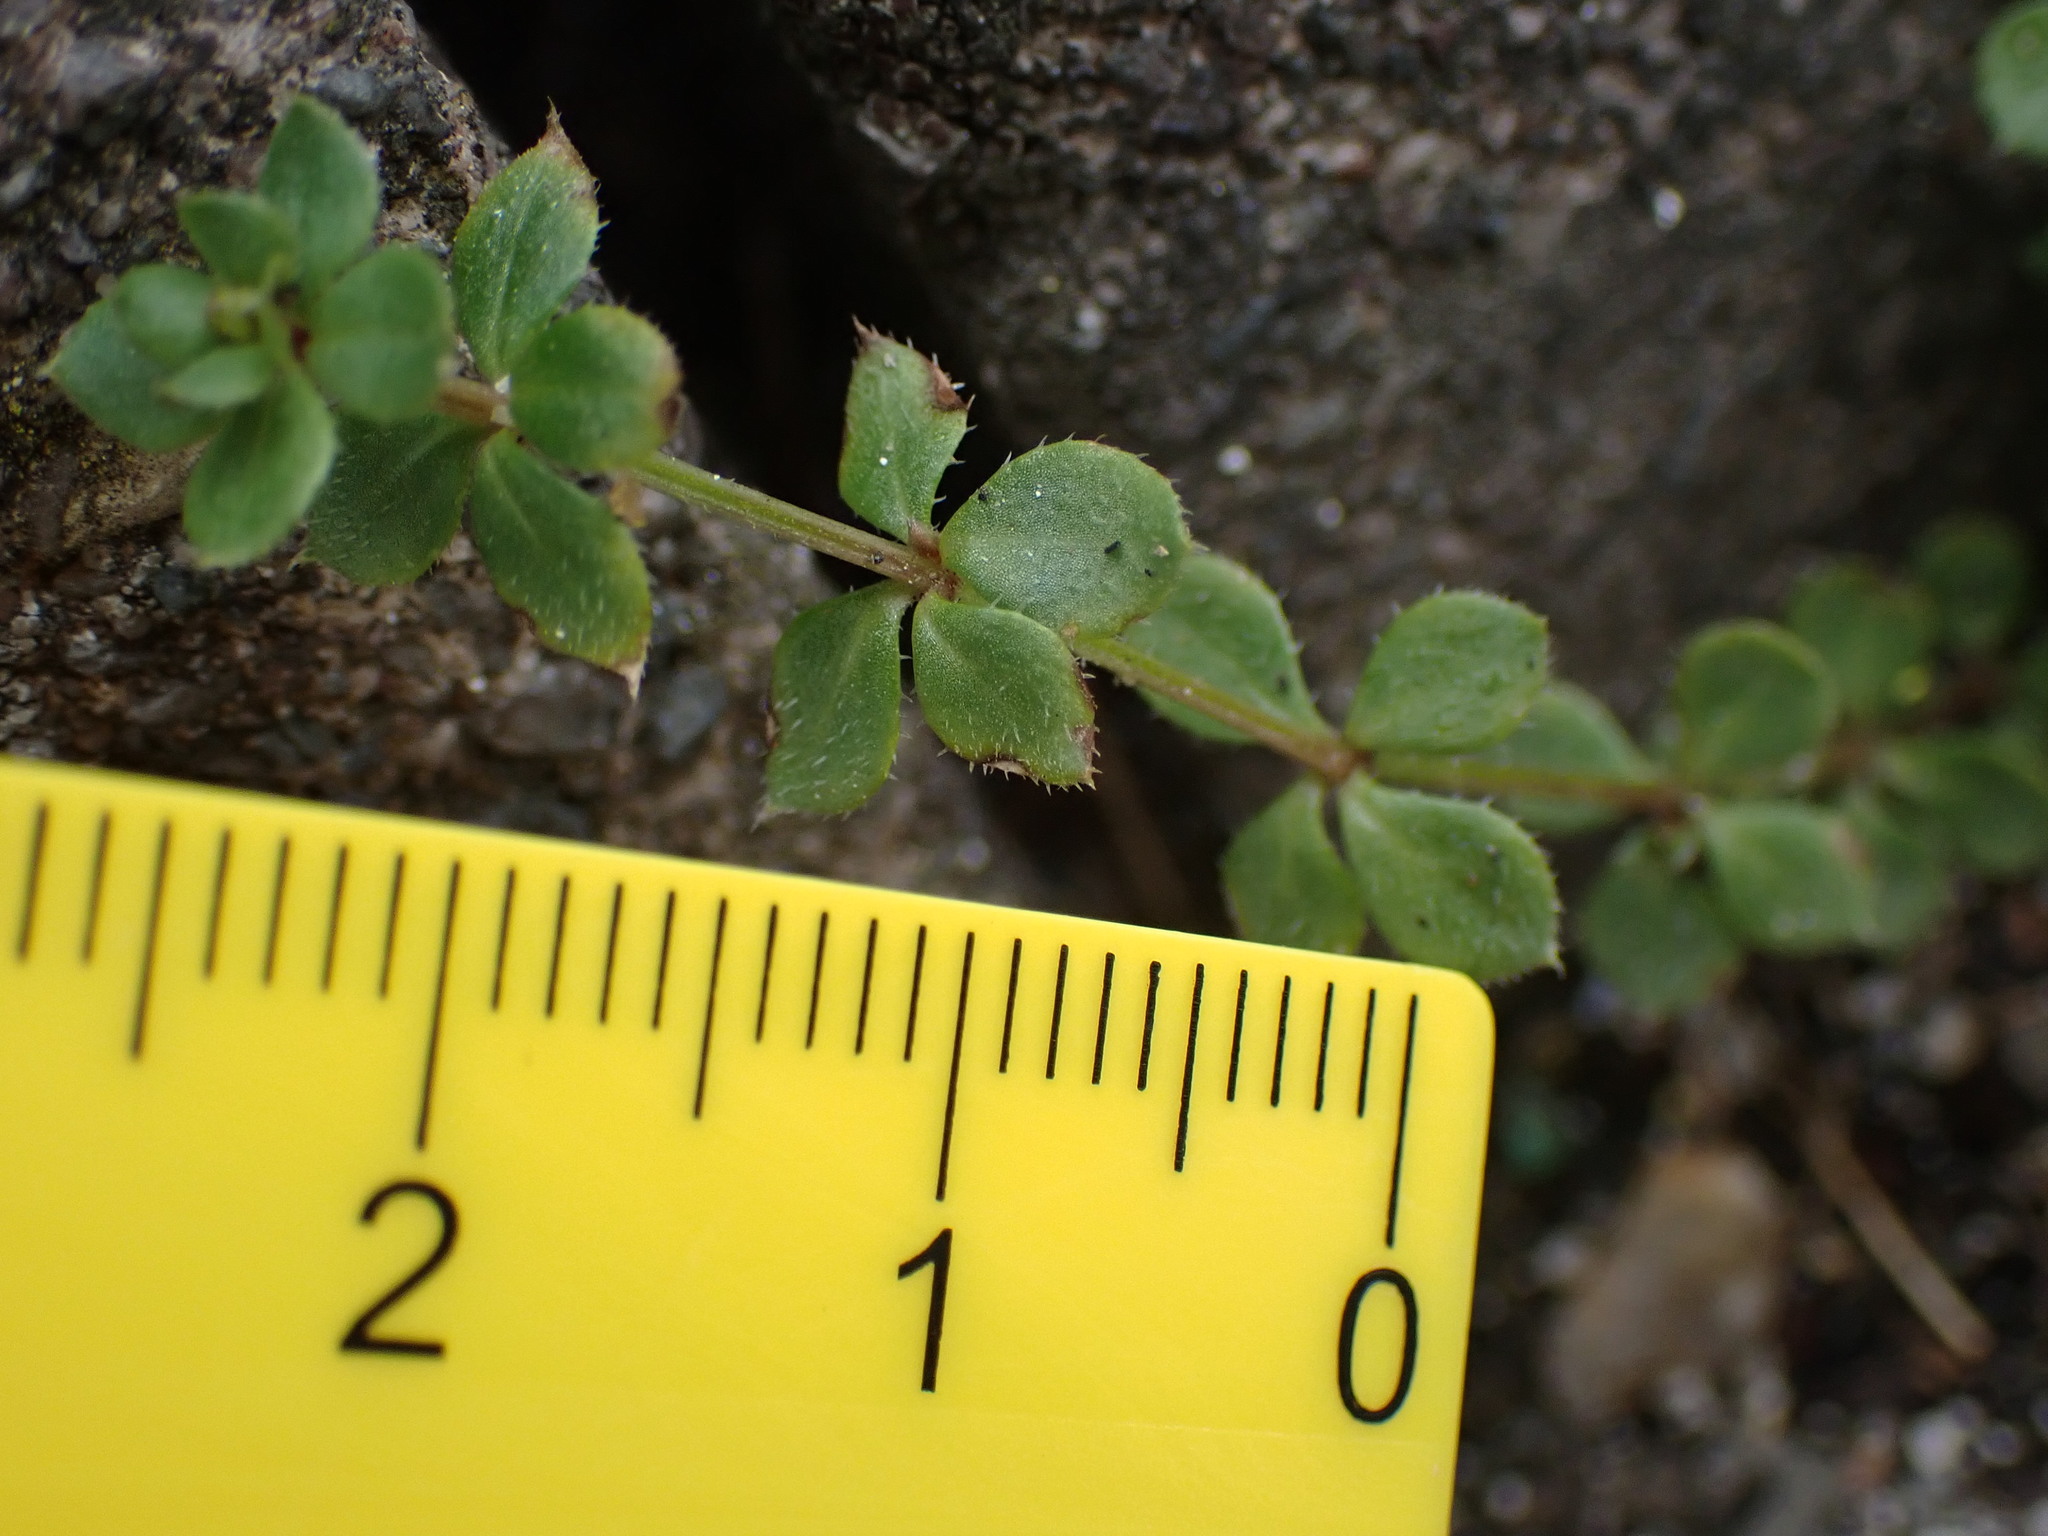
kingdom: Plantae
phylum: Tracheophyta
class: Magnoliopsida
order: Gentianales
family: Rubiaceae
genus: Galium
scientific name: Galium murale
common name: Yellow wall bedstraw
